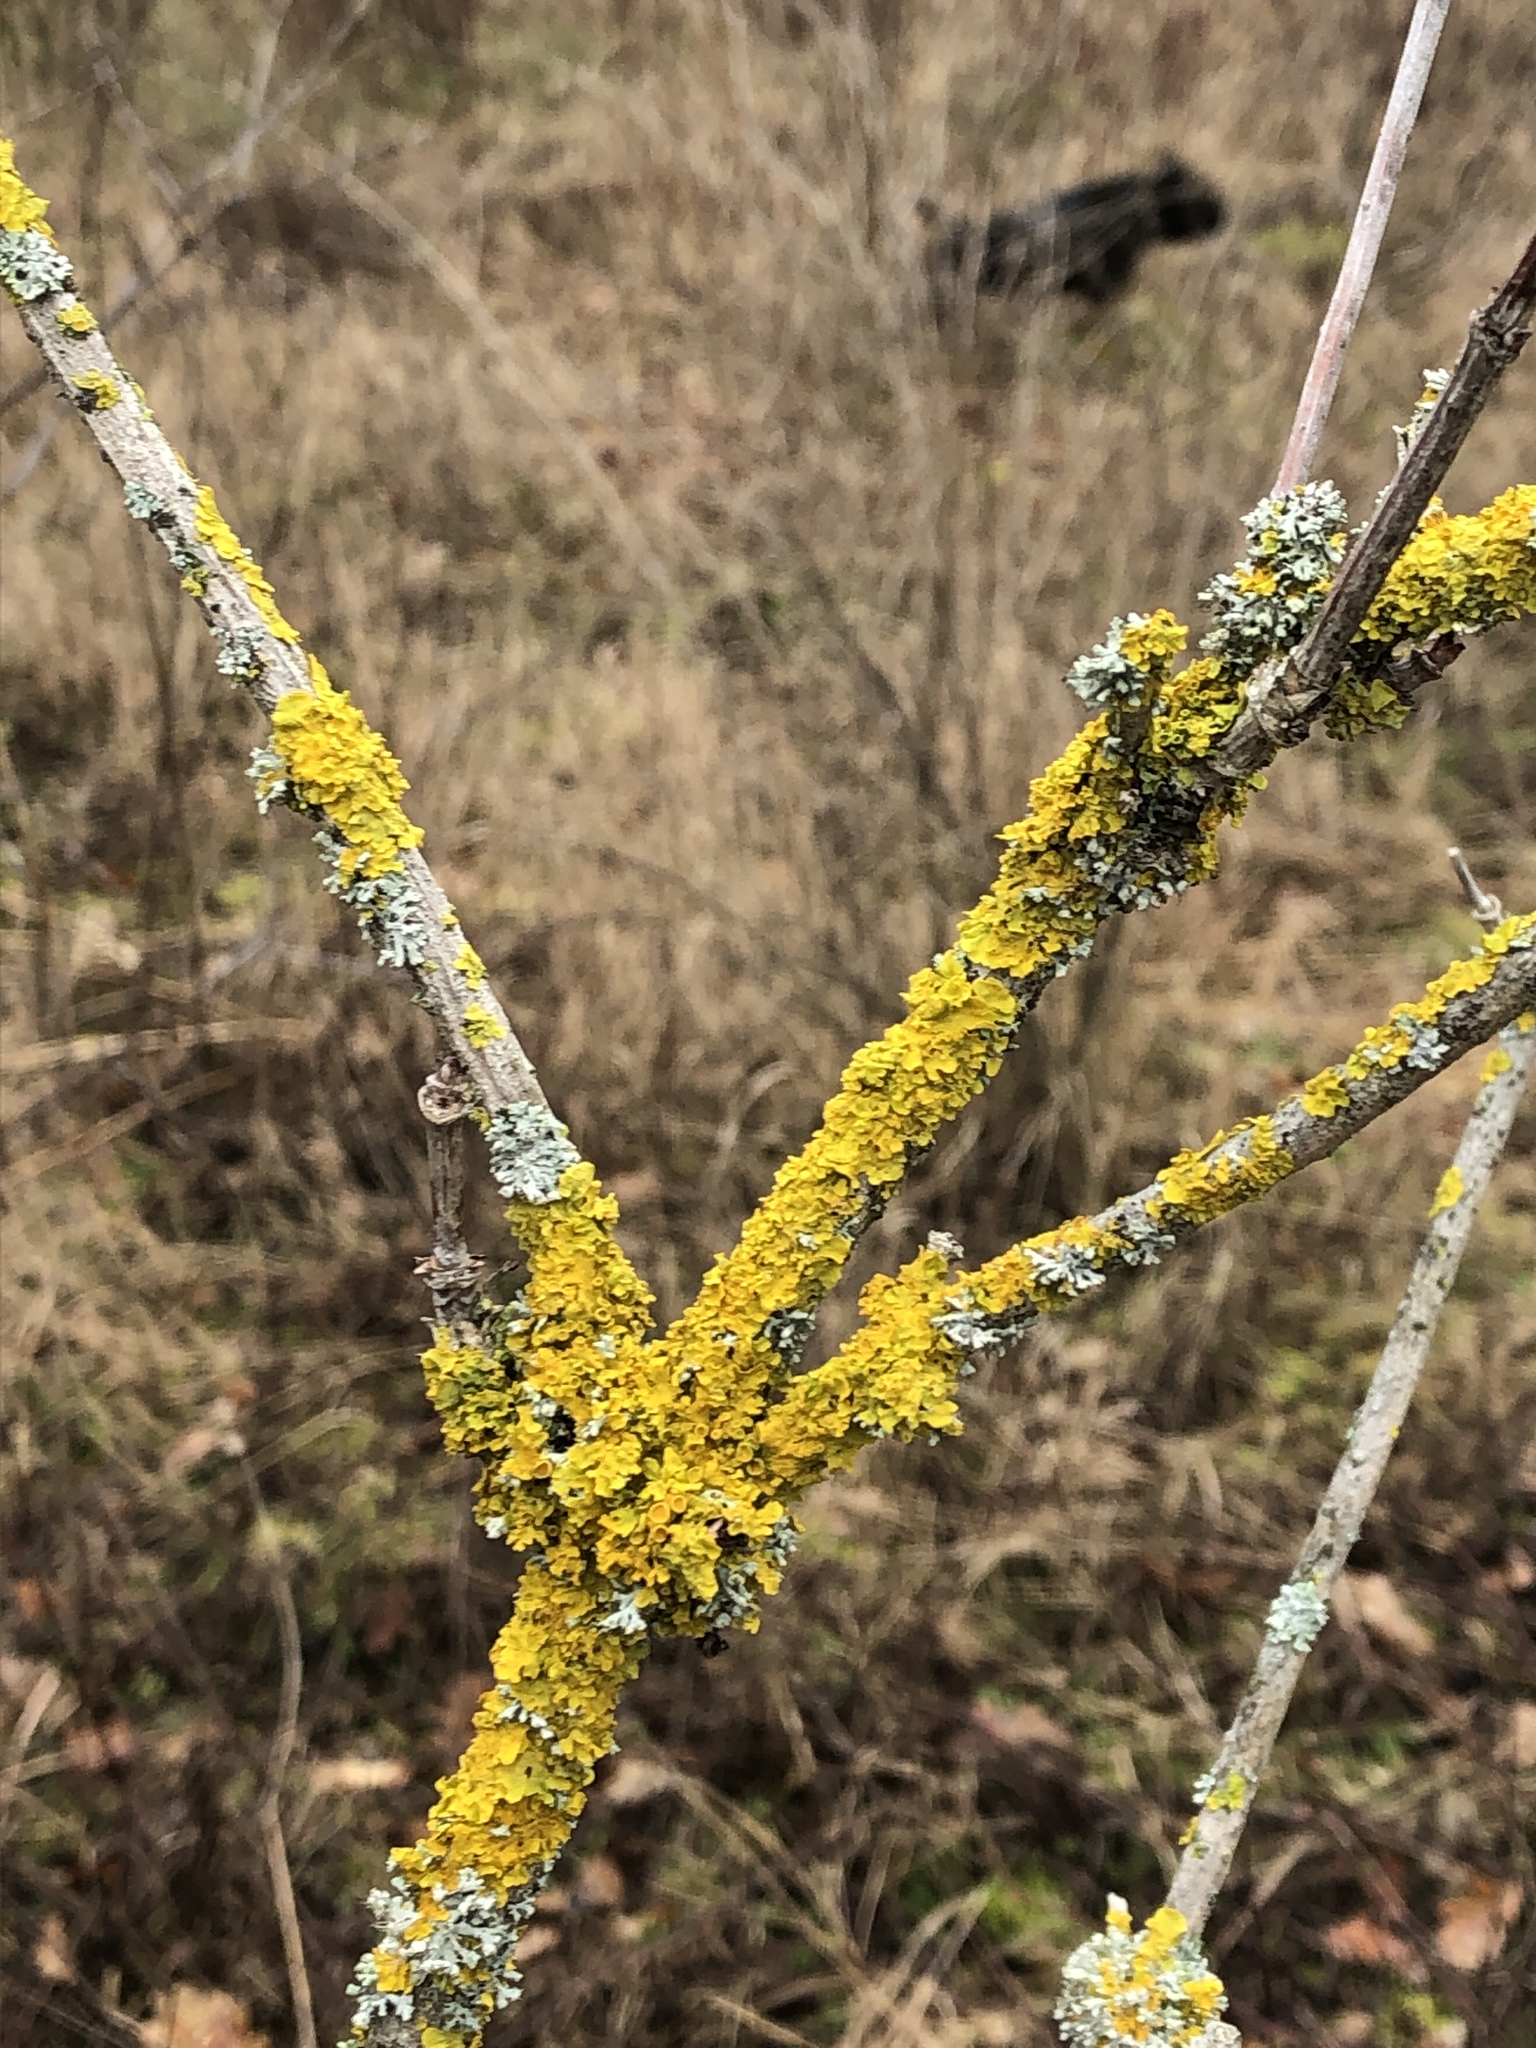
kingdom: Fungi
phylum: Ascomycota
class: Lecanoromycetes
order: Teloschistales
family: Teloschistaceae
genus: Xanthoria
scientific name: Xanthoria parietina
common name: Common orange lichen
